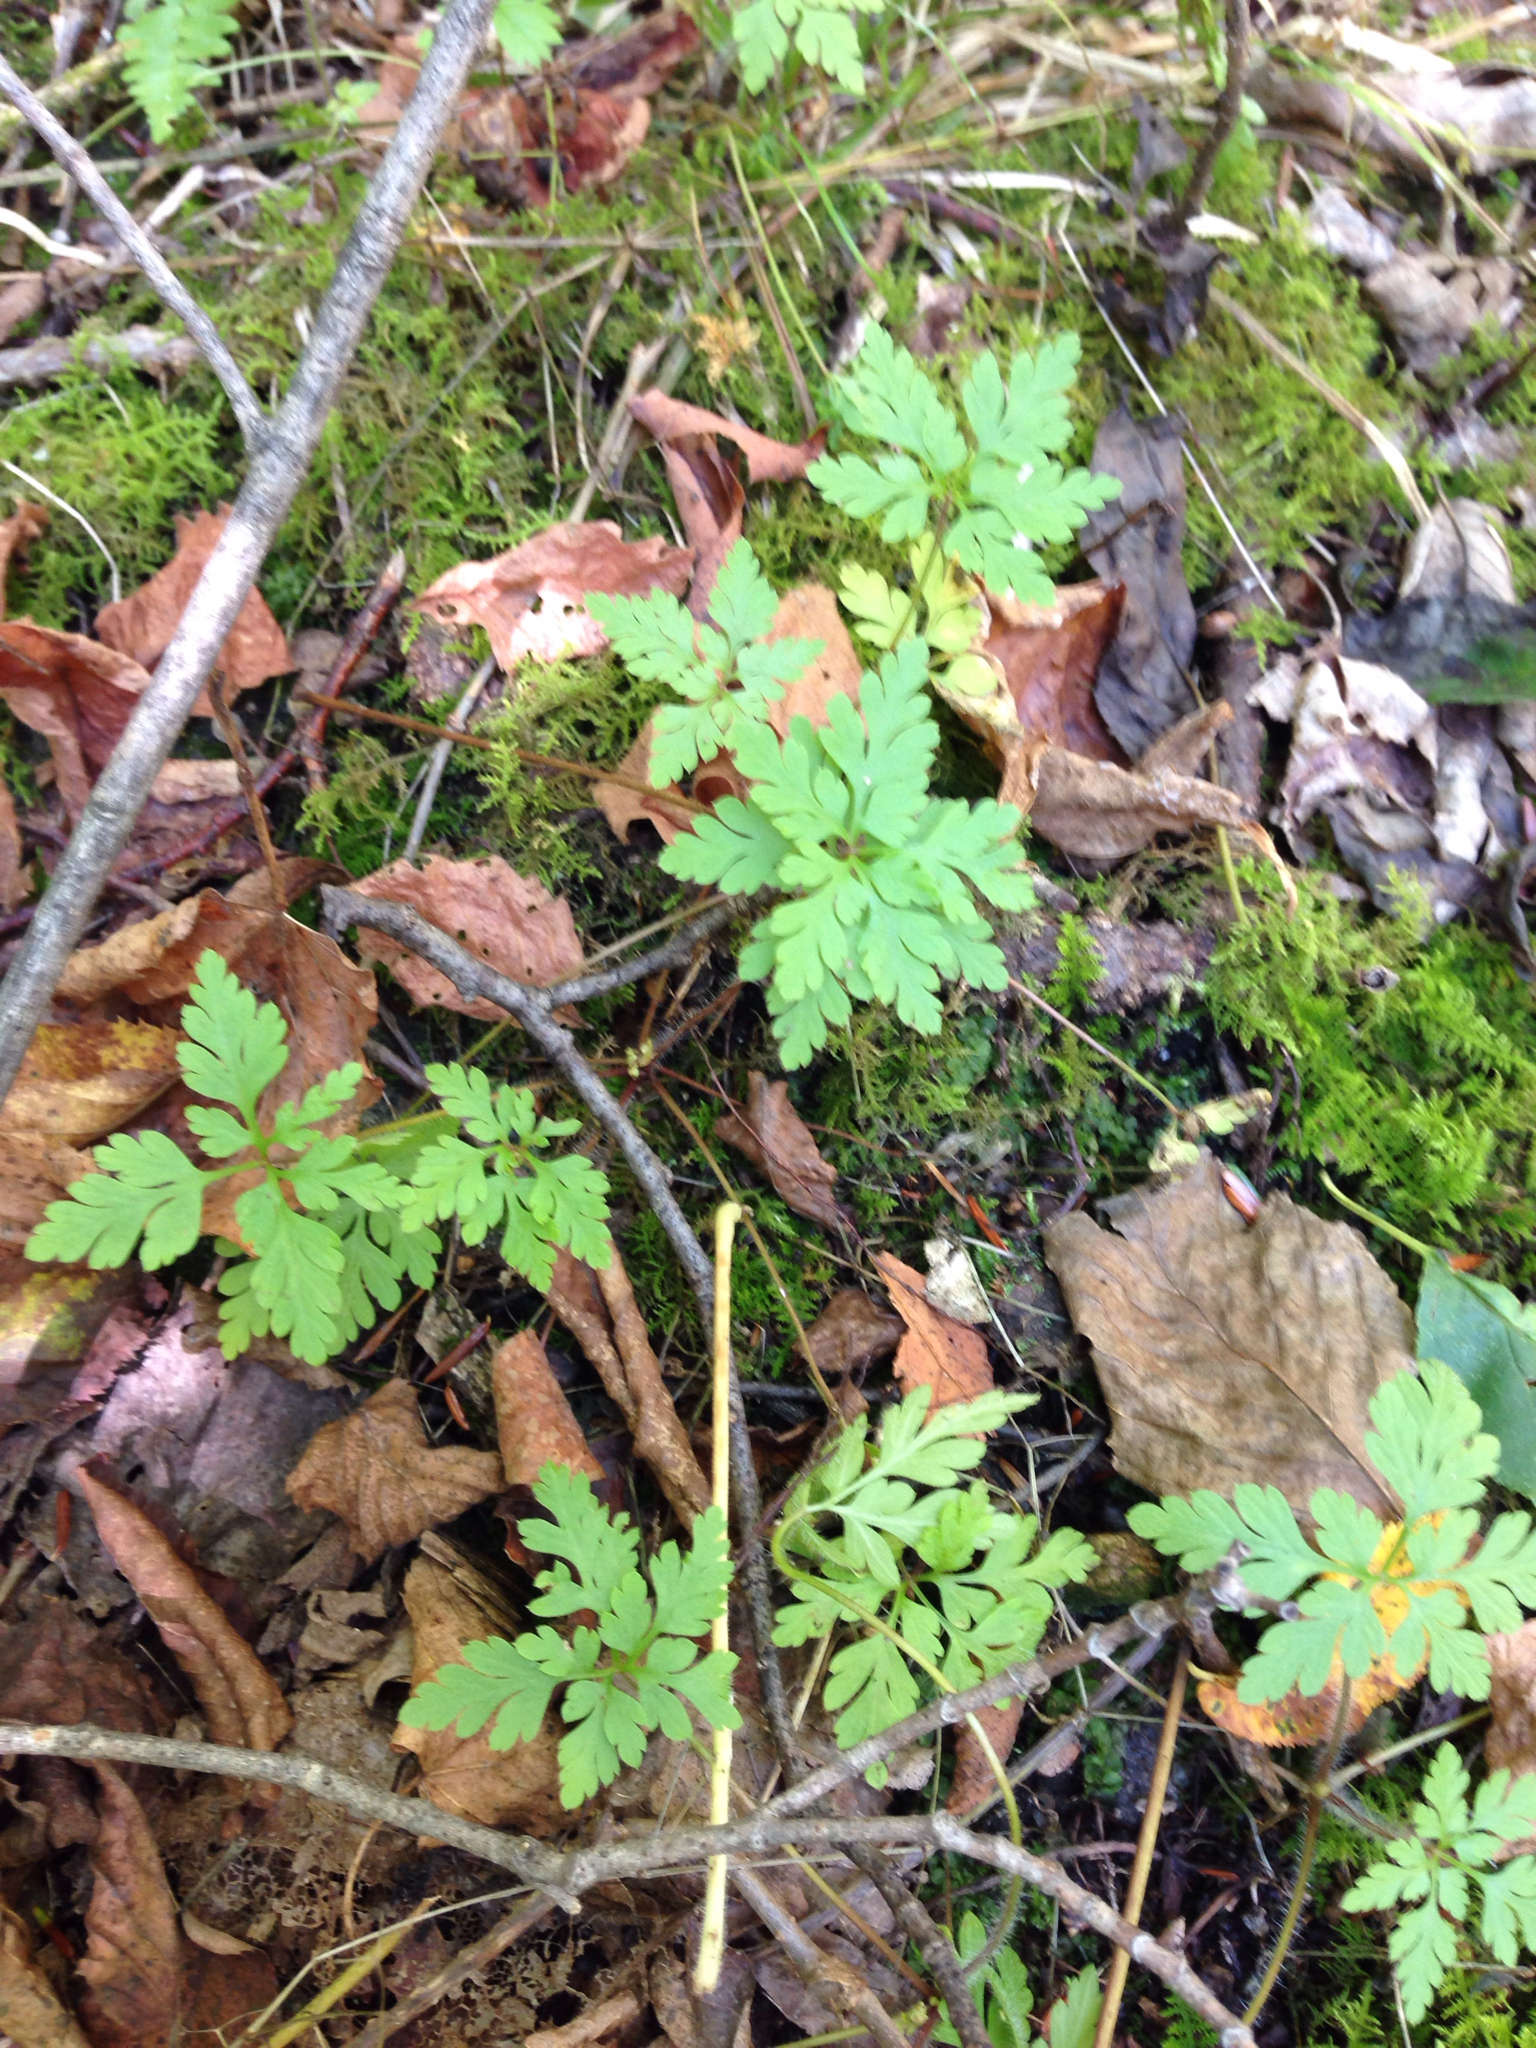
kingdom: Plantae
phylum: Tracheophyta
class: Magnoliopsida
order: Geraniales
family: Geraniaceae
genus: Geranium
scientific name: Geranium robertianum
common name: Herb-robert
